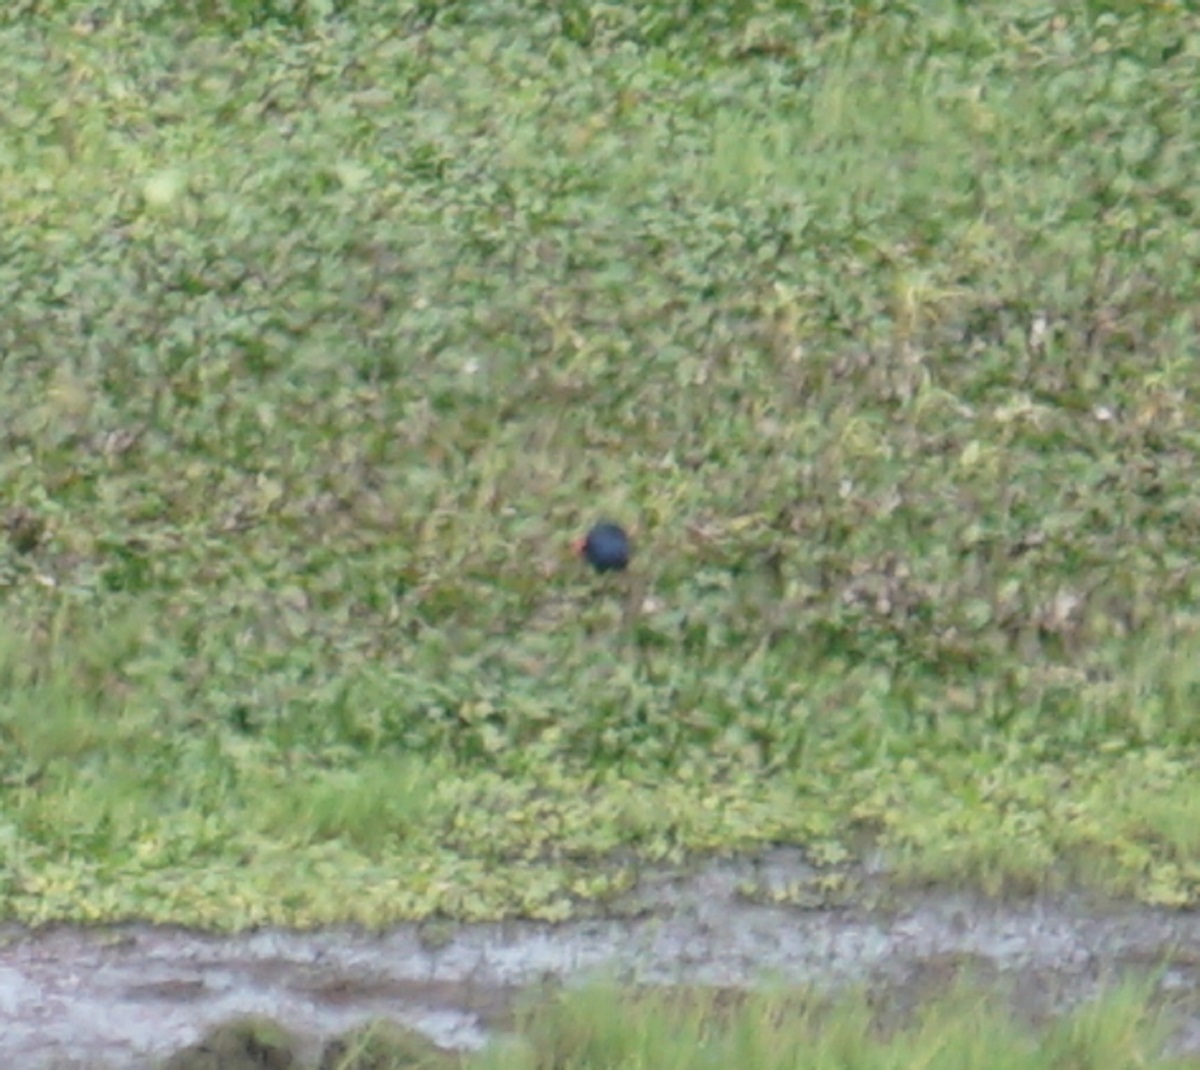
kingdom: Animalia
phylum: Chordata
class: Aves
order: Gruiformes
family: Rallidae
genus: Porphyrio
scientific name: Porphyrio melanotus
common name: Australasian swamphen
